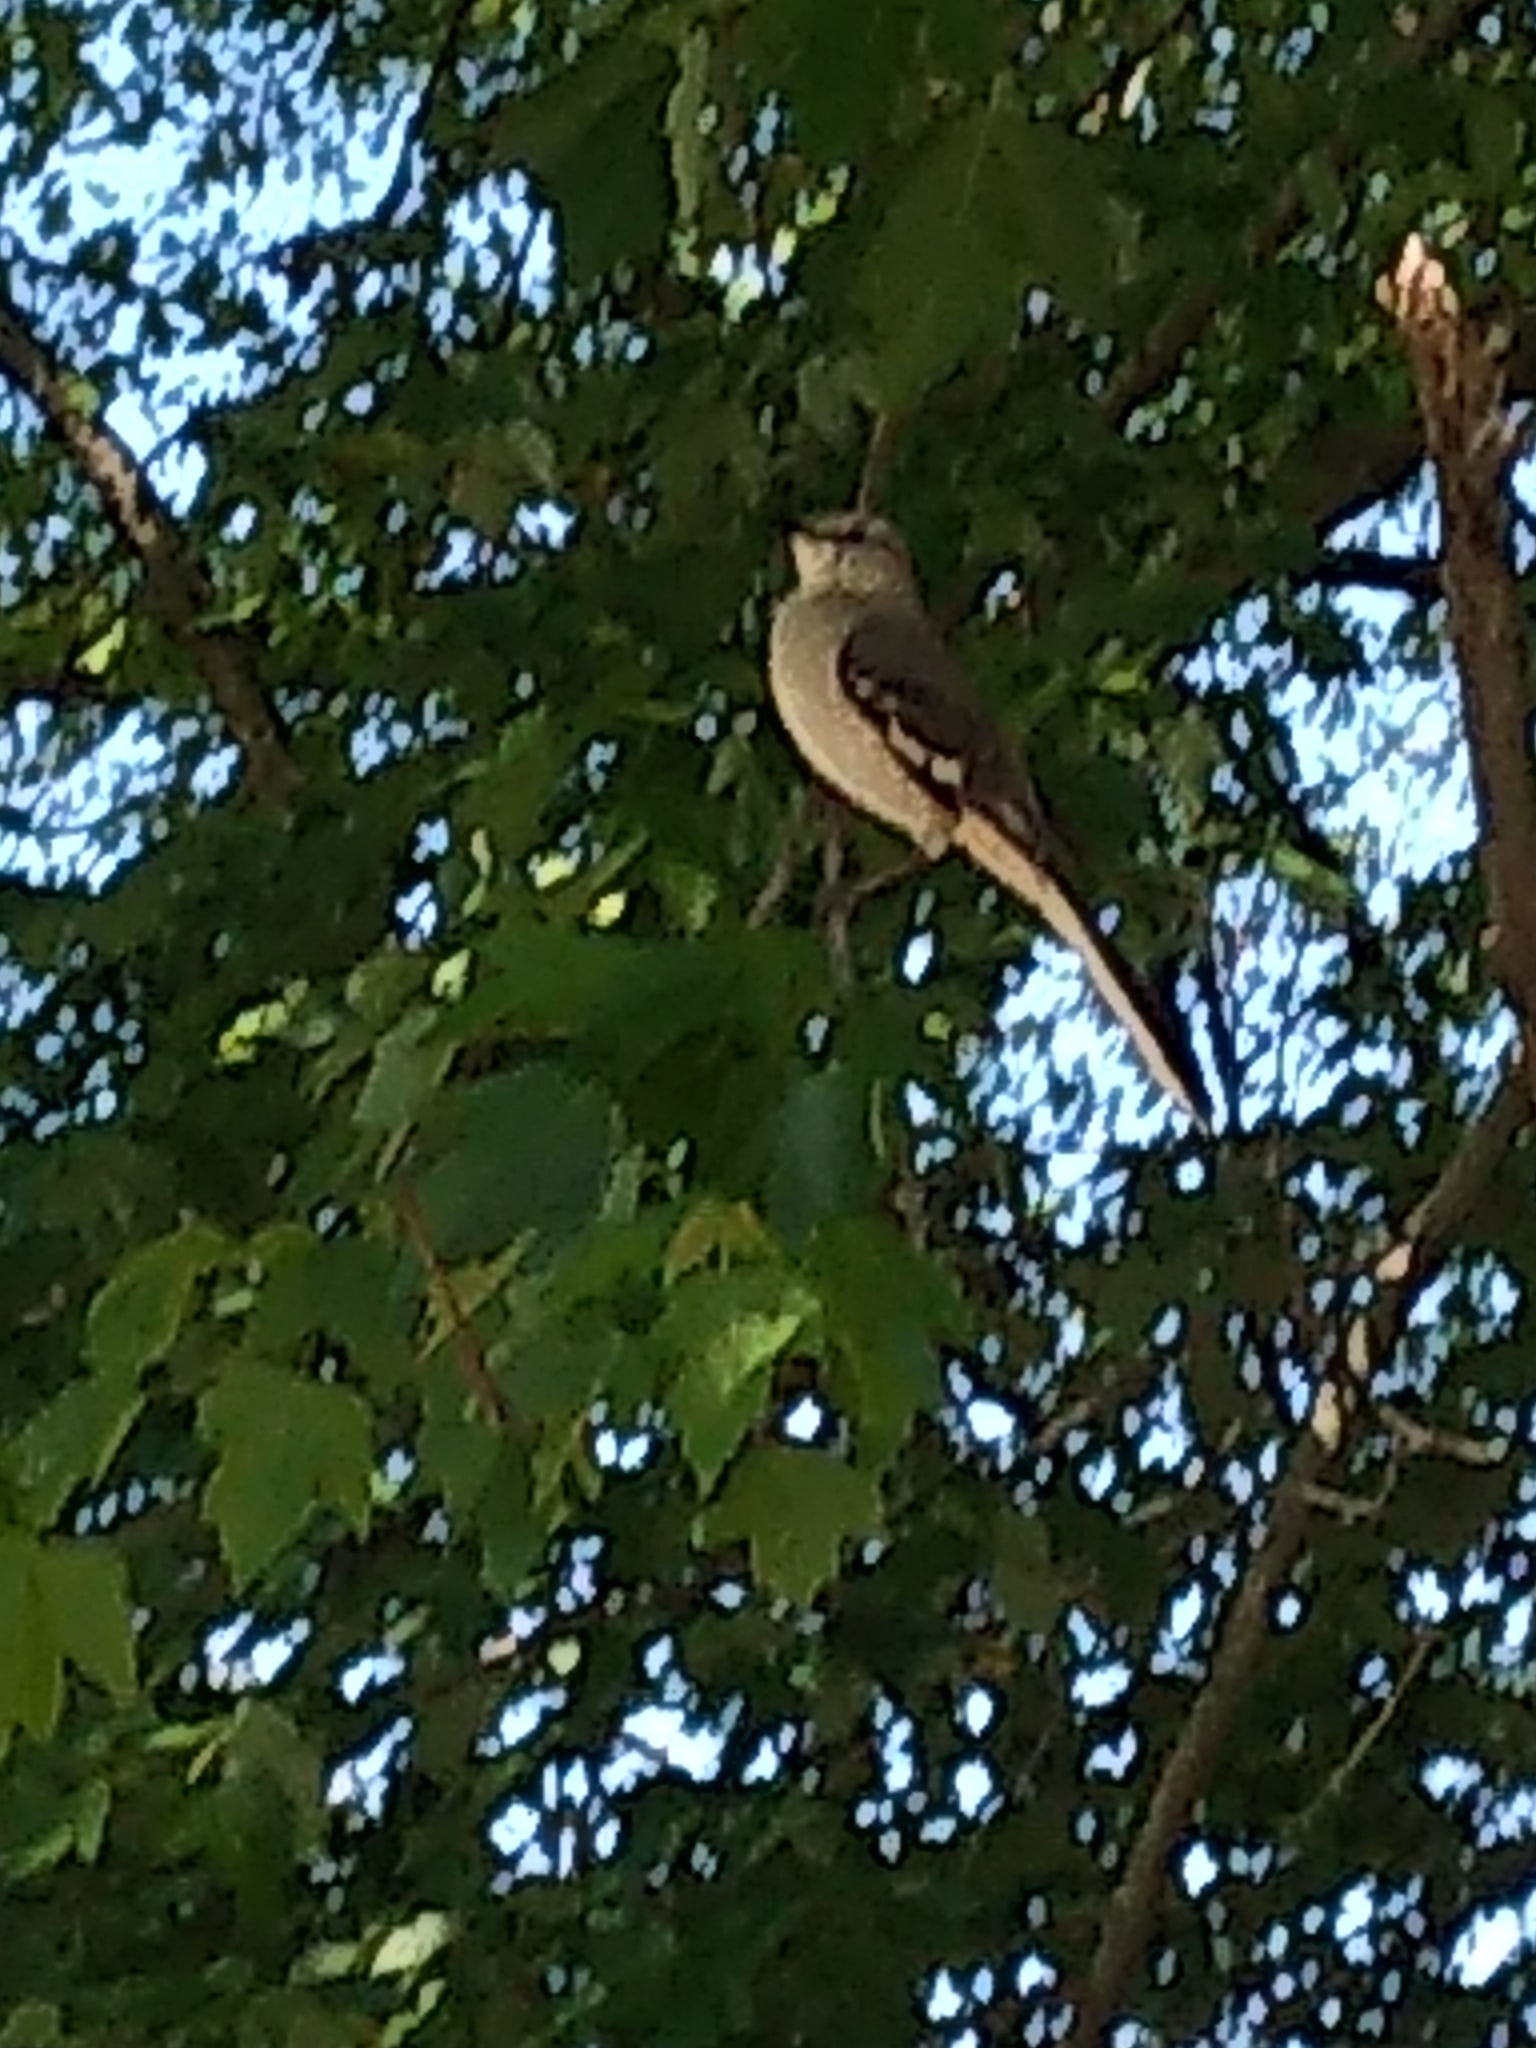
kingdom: Animalia
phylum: Chordata
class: Aves
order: Passeriformes
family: Mimidae
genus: Mimus
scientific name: Mimus polyglottos
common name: Northern mockingbird
